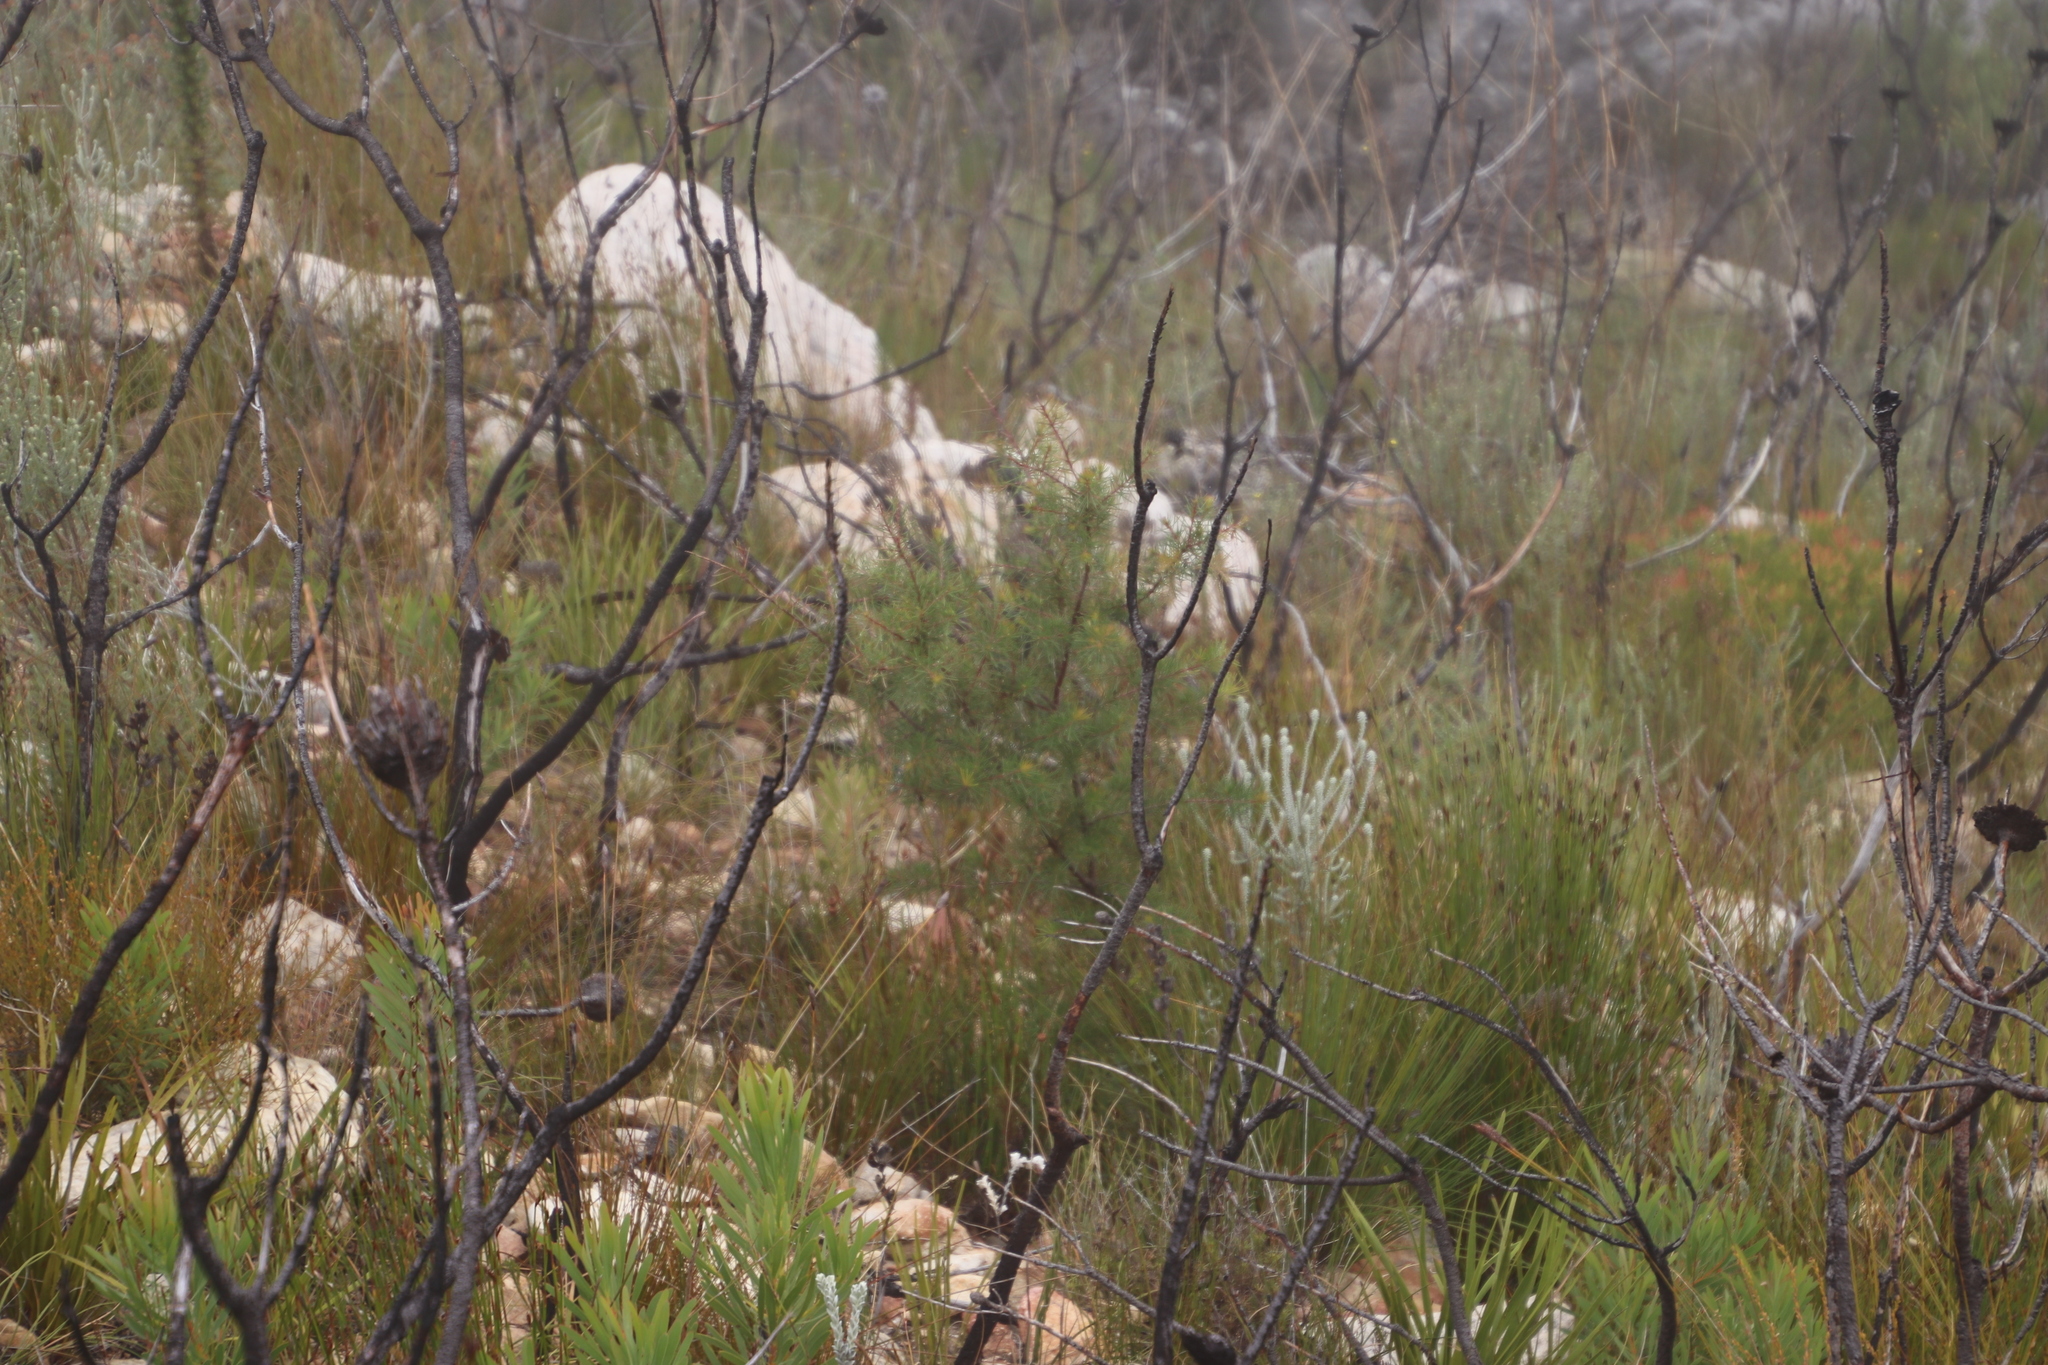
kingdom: Plantae
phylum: Tracheophyta
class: Magnoliopsida
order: Proteales
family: Proteaceae
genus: Hakea
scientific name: Hakea sericea
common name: Needle bush
